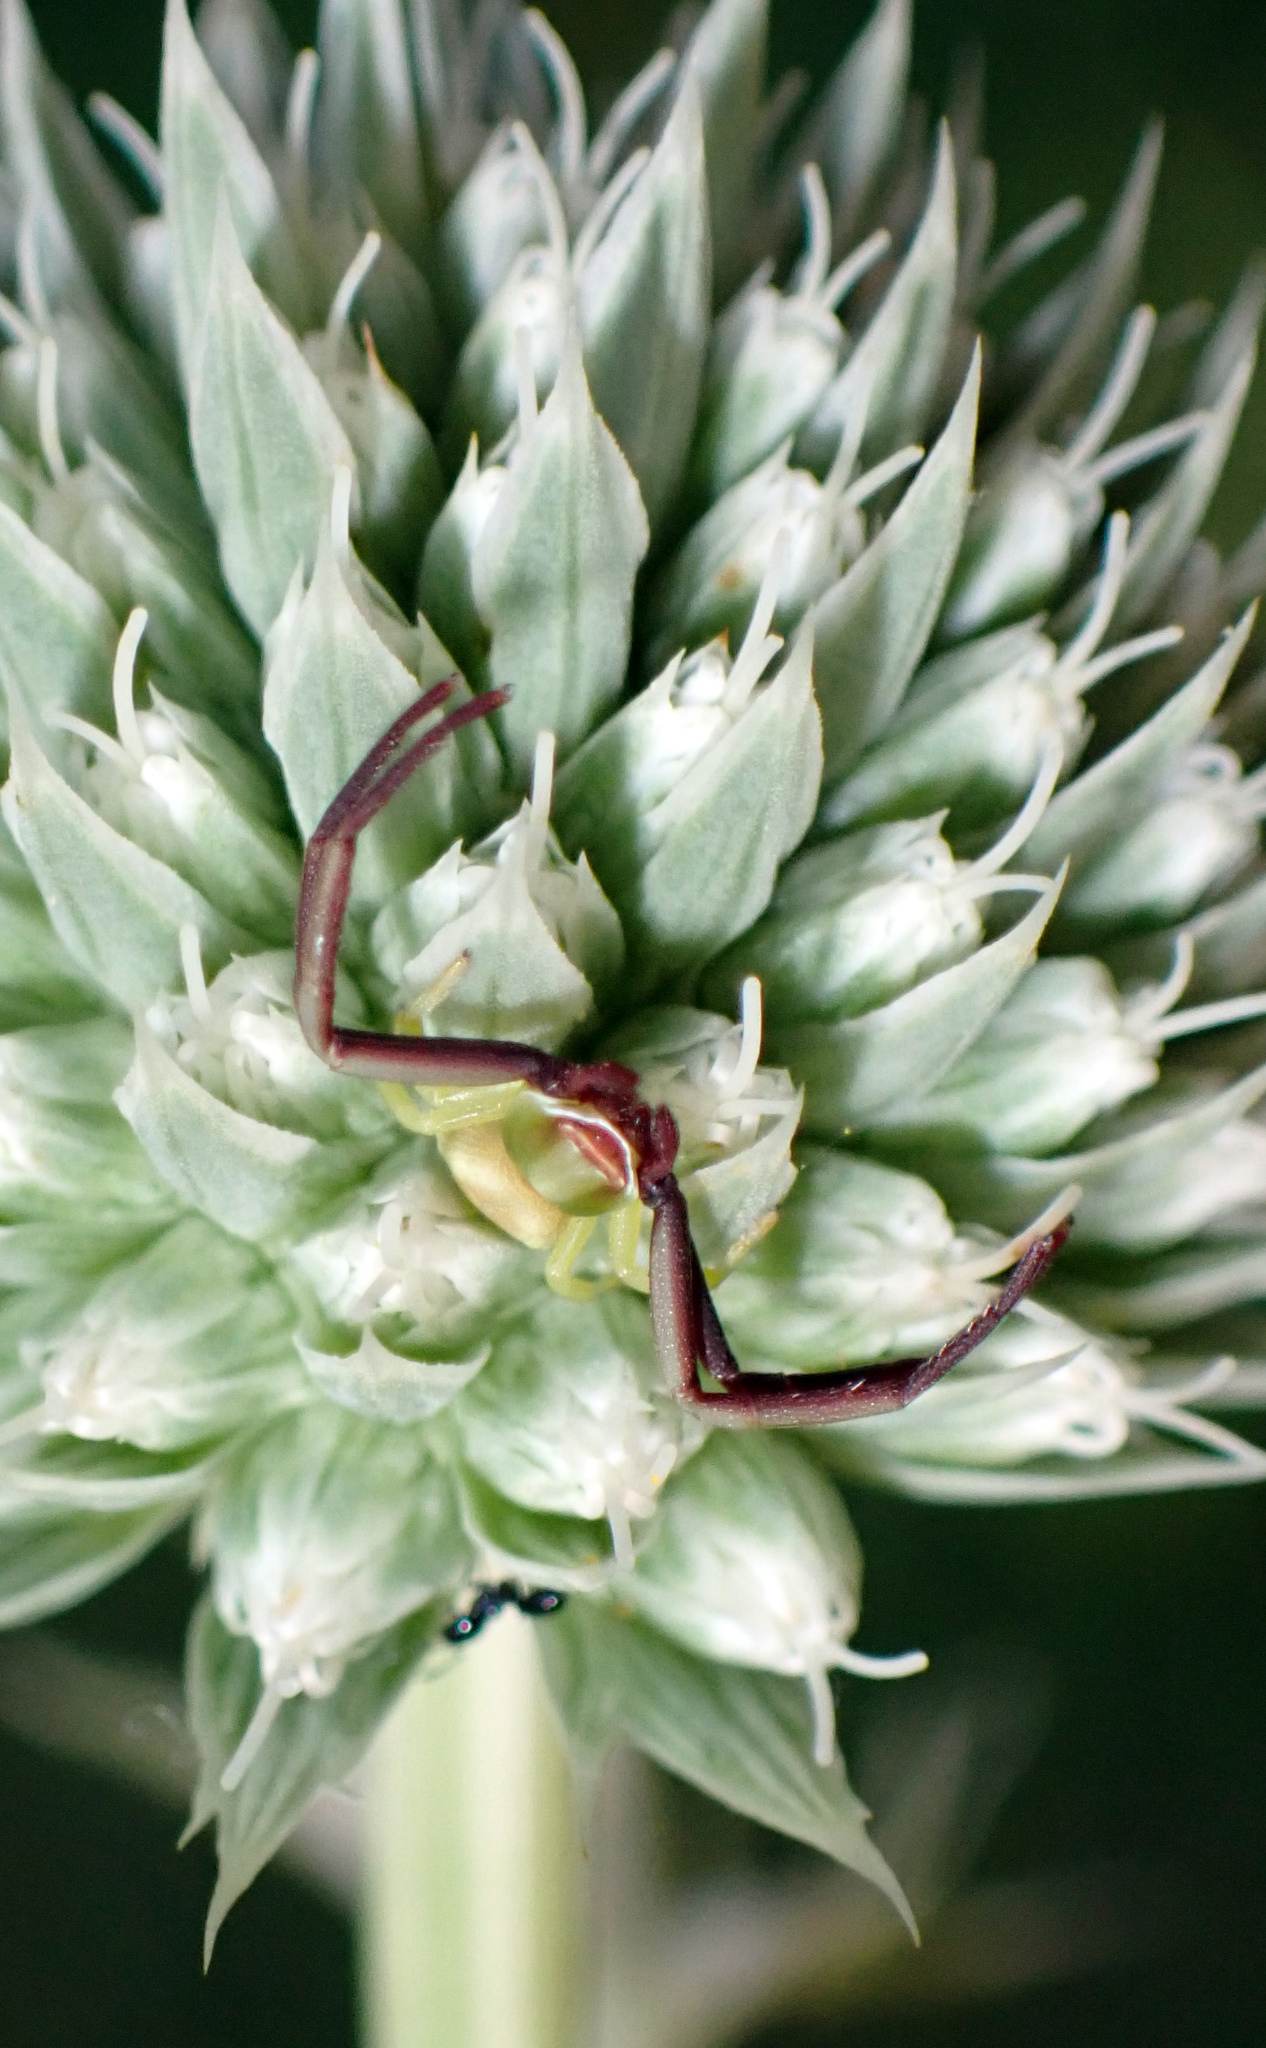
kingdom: Animalia
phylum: Arthropoda
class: Arachnida
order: Araneae
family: Thomisidae
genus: Misumenoides
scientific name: Misumenoides formosipes
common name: White-banded crab spider
